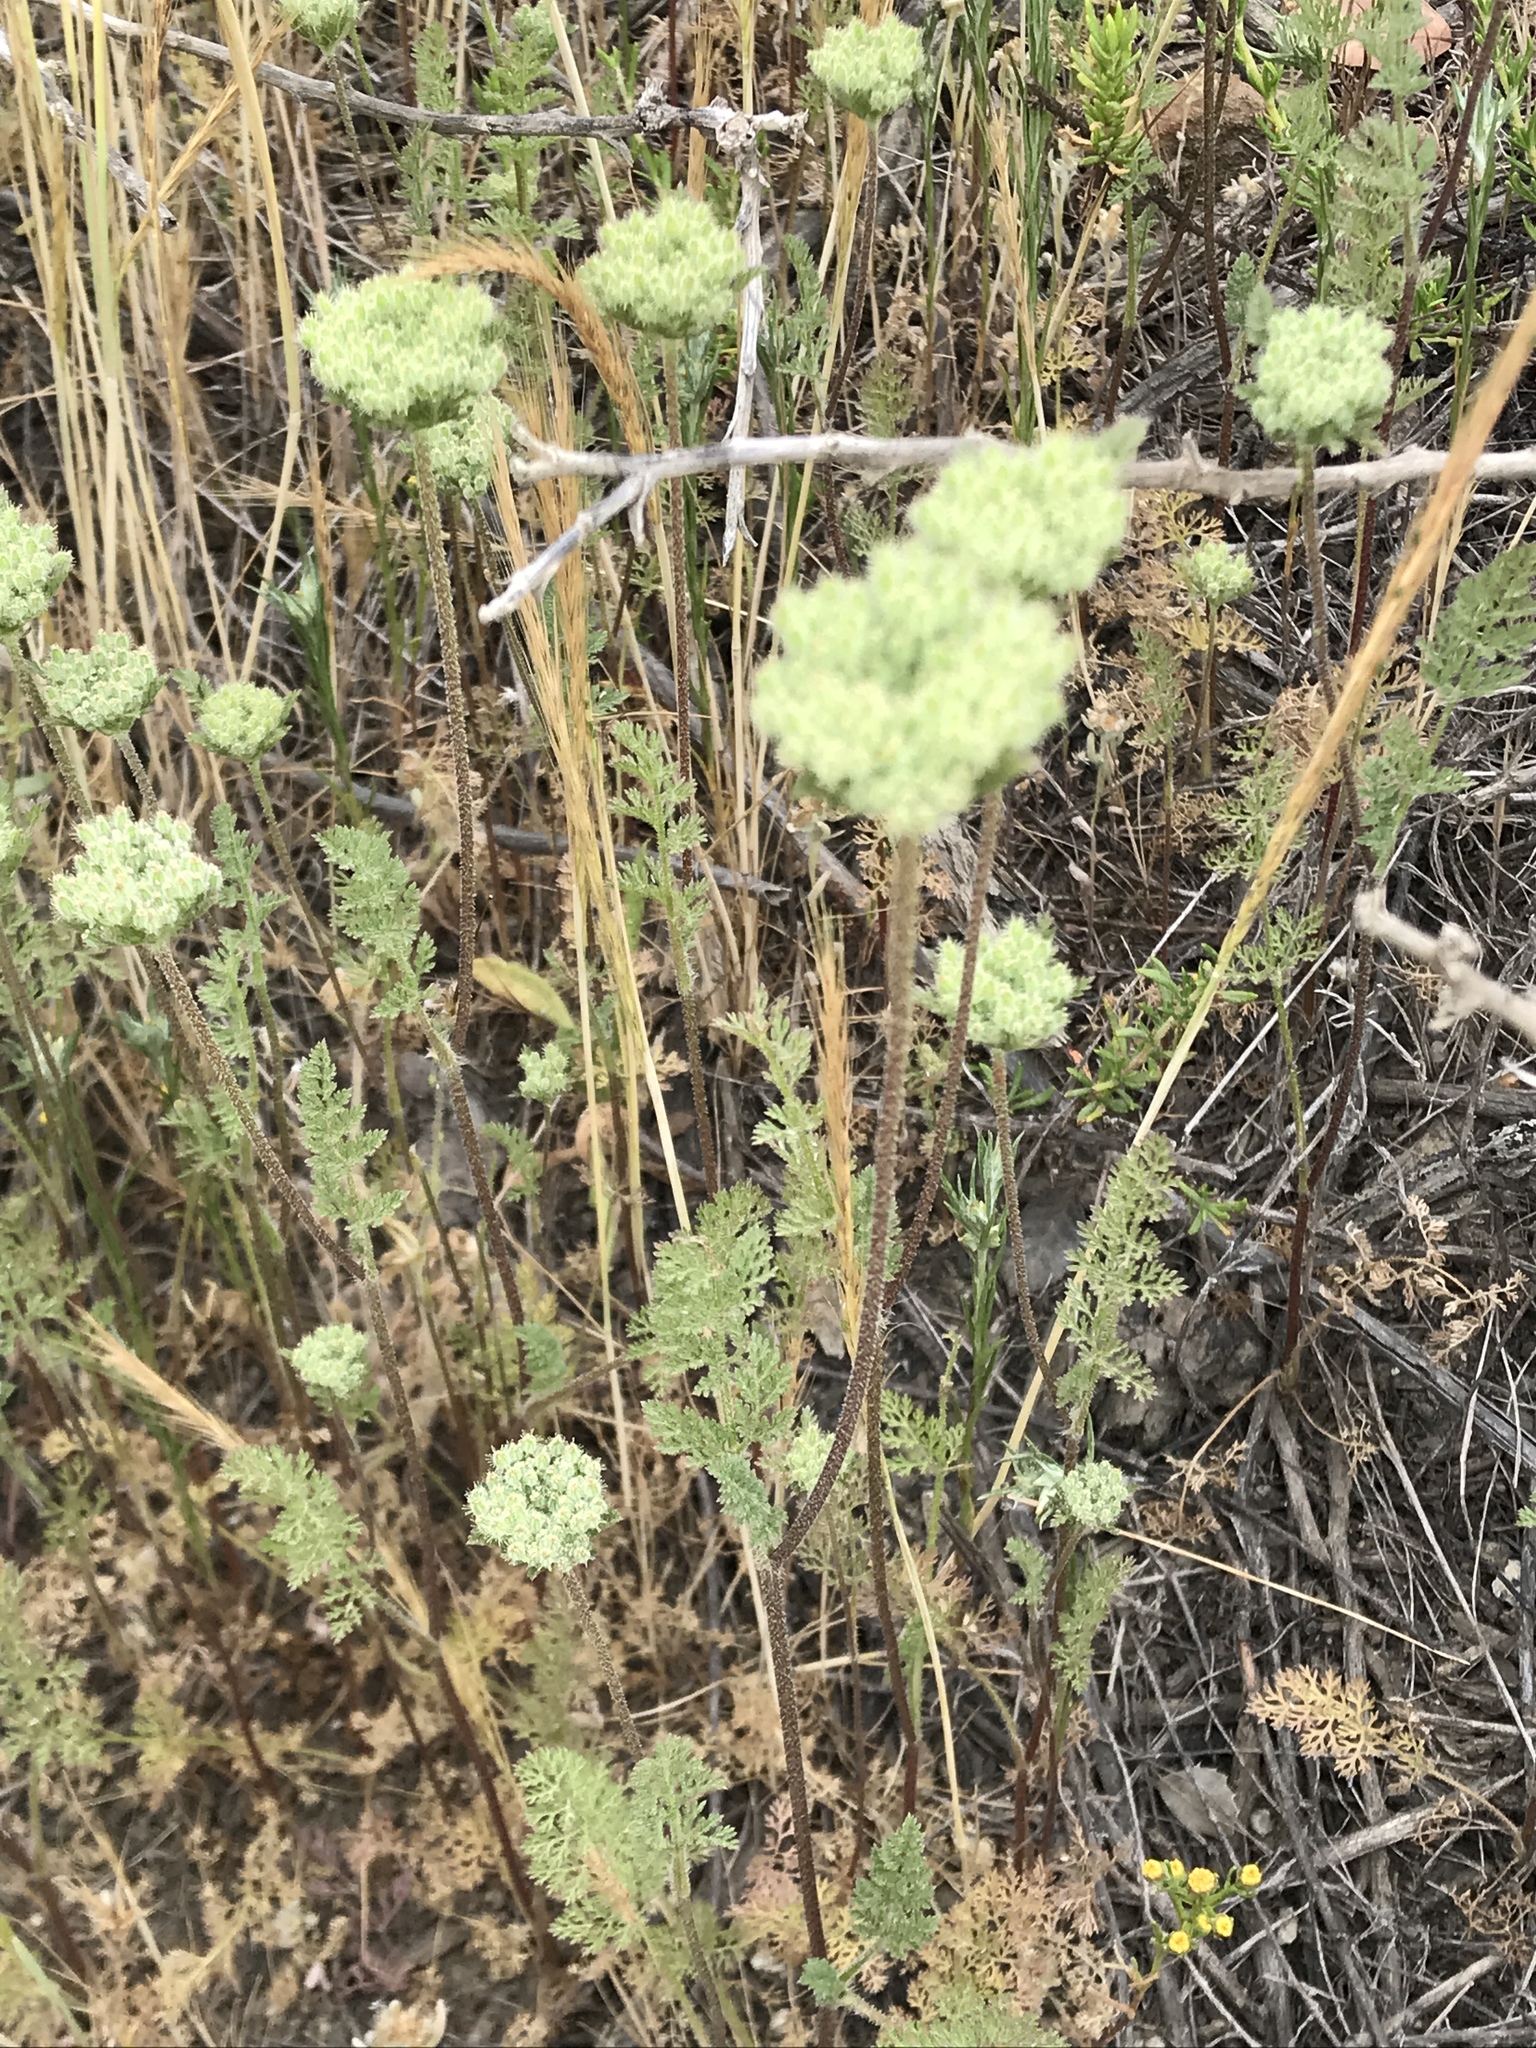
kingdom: Plantae
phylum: Tracheophyta
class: Magnoliopsida
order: Apiales
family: Apiaceae
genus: Daucus
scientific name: Daucus pusillus
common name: Southwest wild carrot
